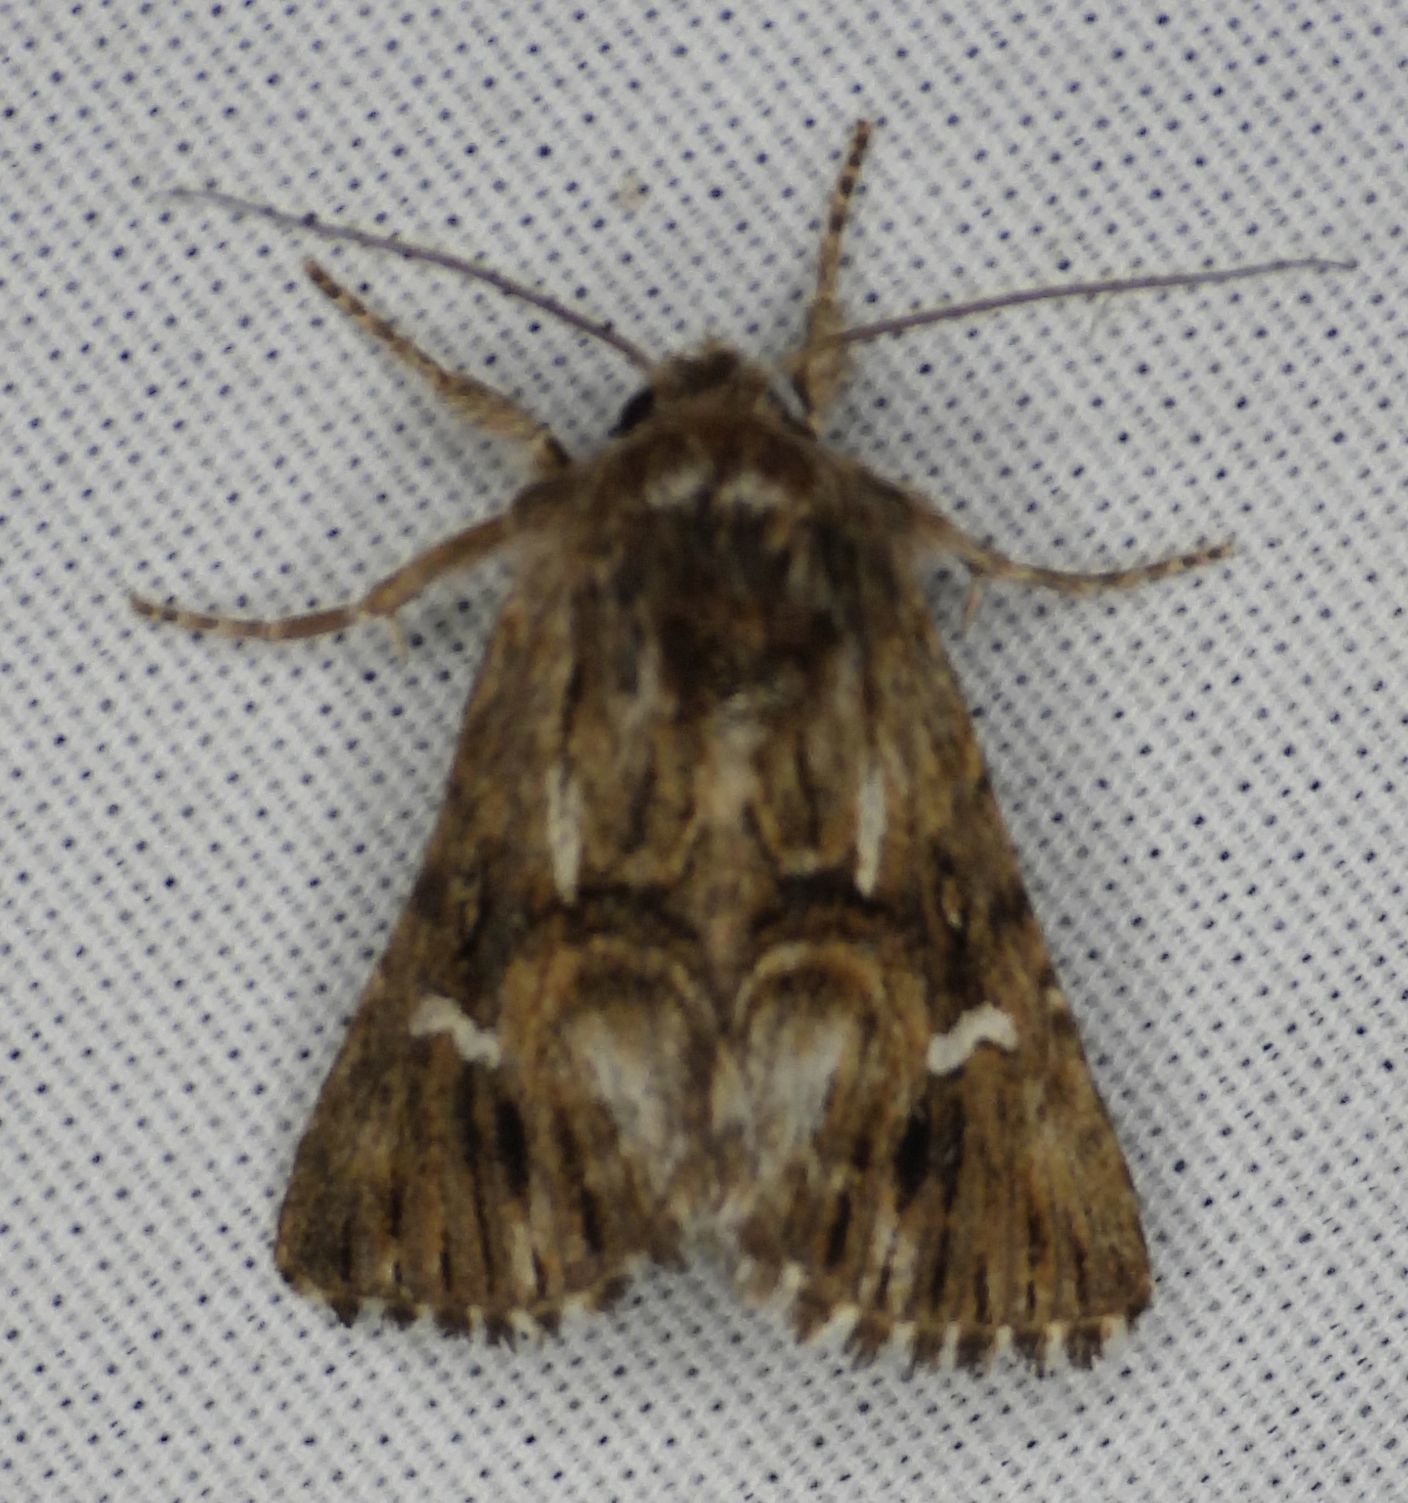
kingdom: Animalia
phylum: Arthropoda
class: Insecta
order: Lepidoptera
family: Noctuidae
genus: Calophasia
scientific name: Calophasia lunula
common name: Toadflax brocade
